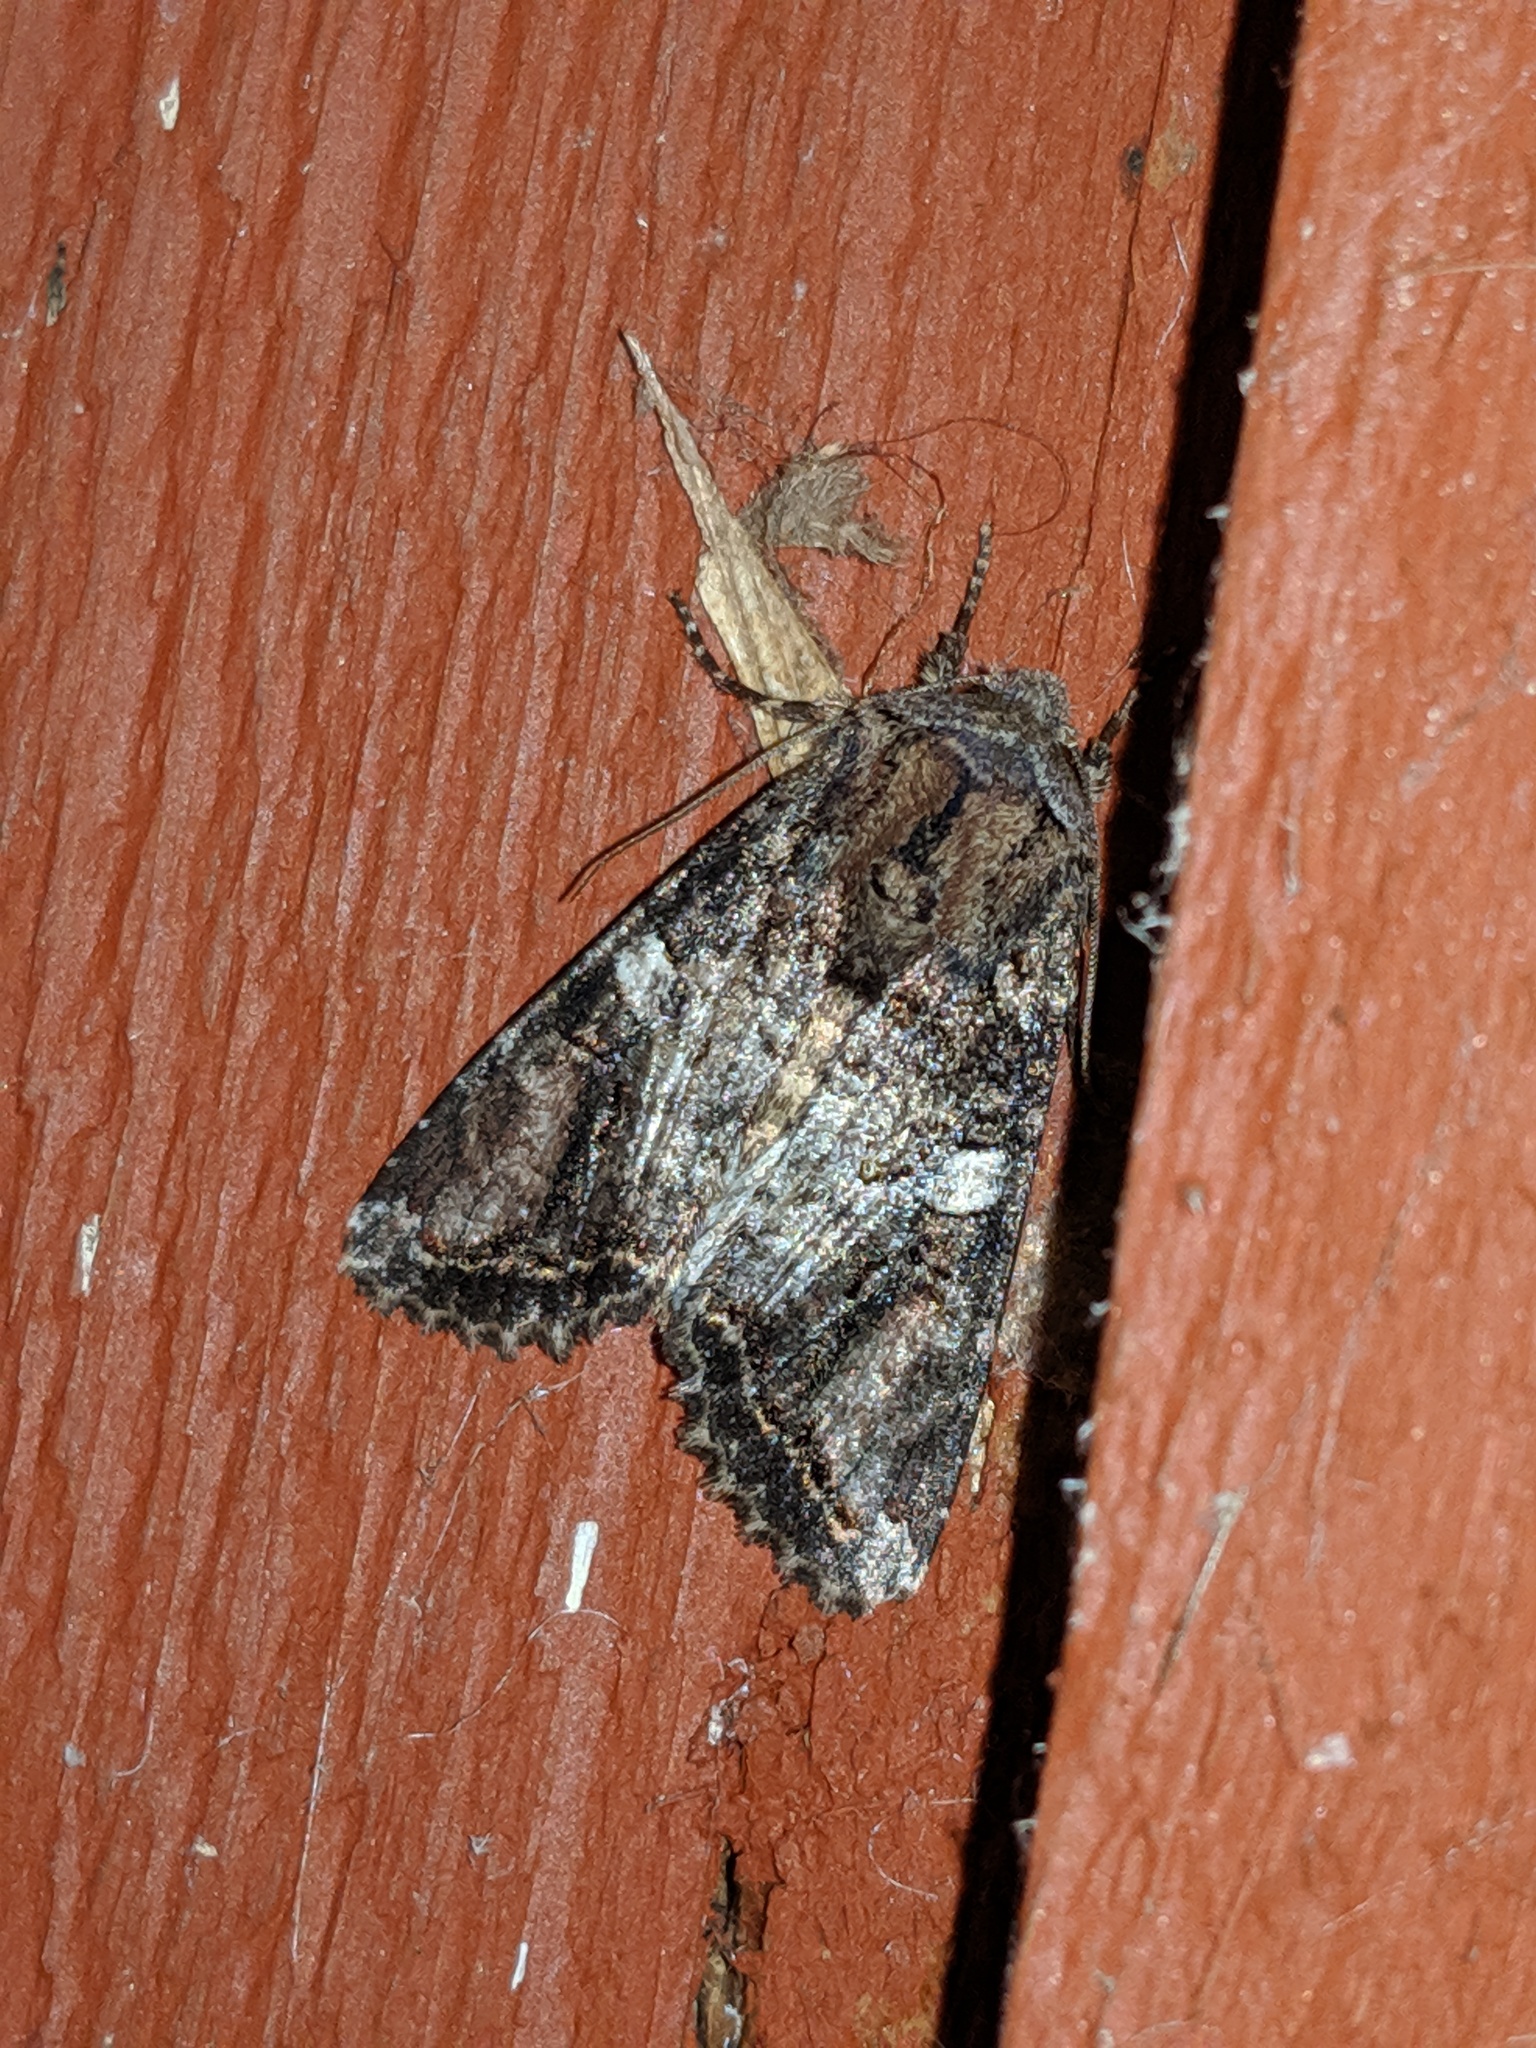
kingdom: Animalia
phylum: Arthropoda
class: Insecta
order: Lepidoptera
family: Noctuidae
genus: Egira
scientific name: Egira perlubens
